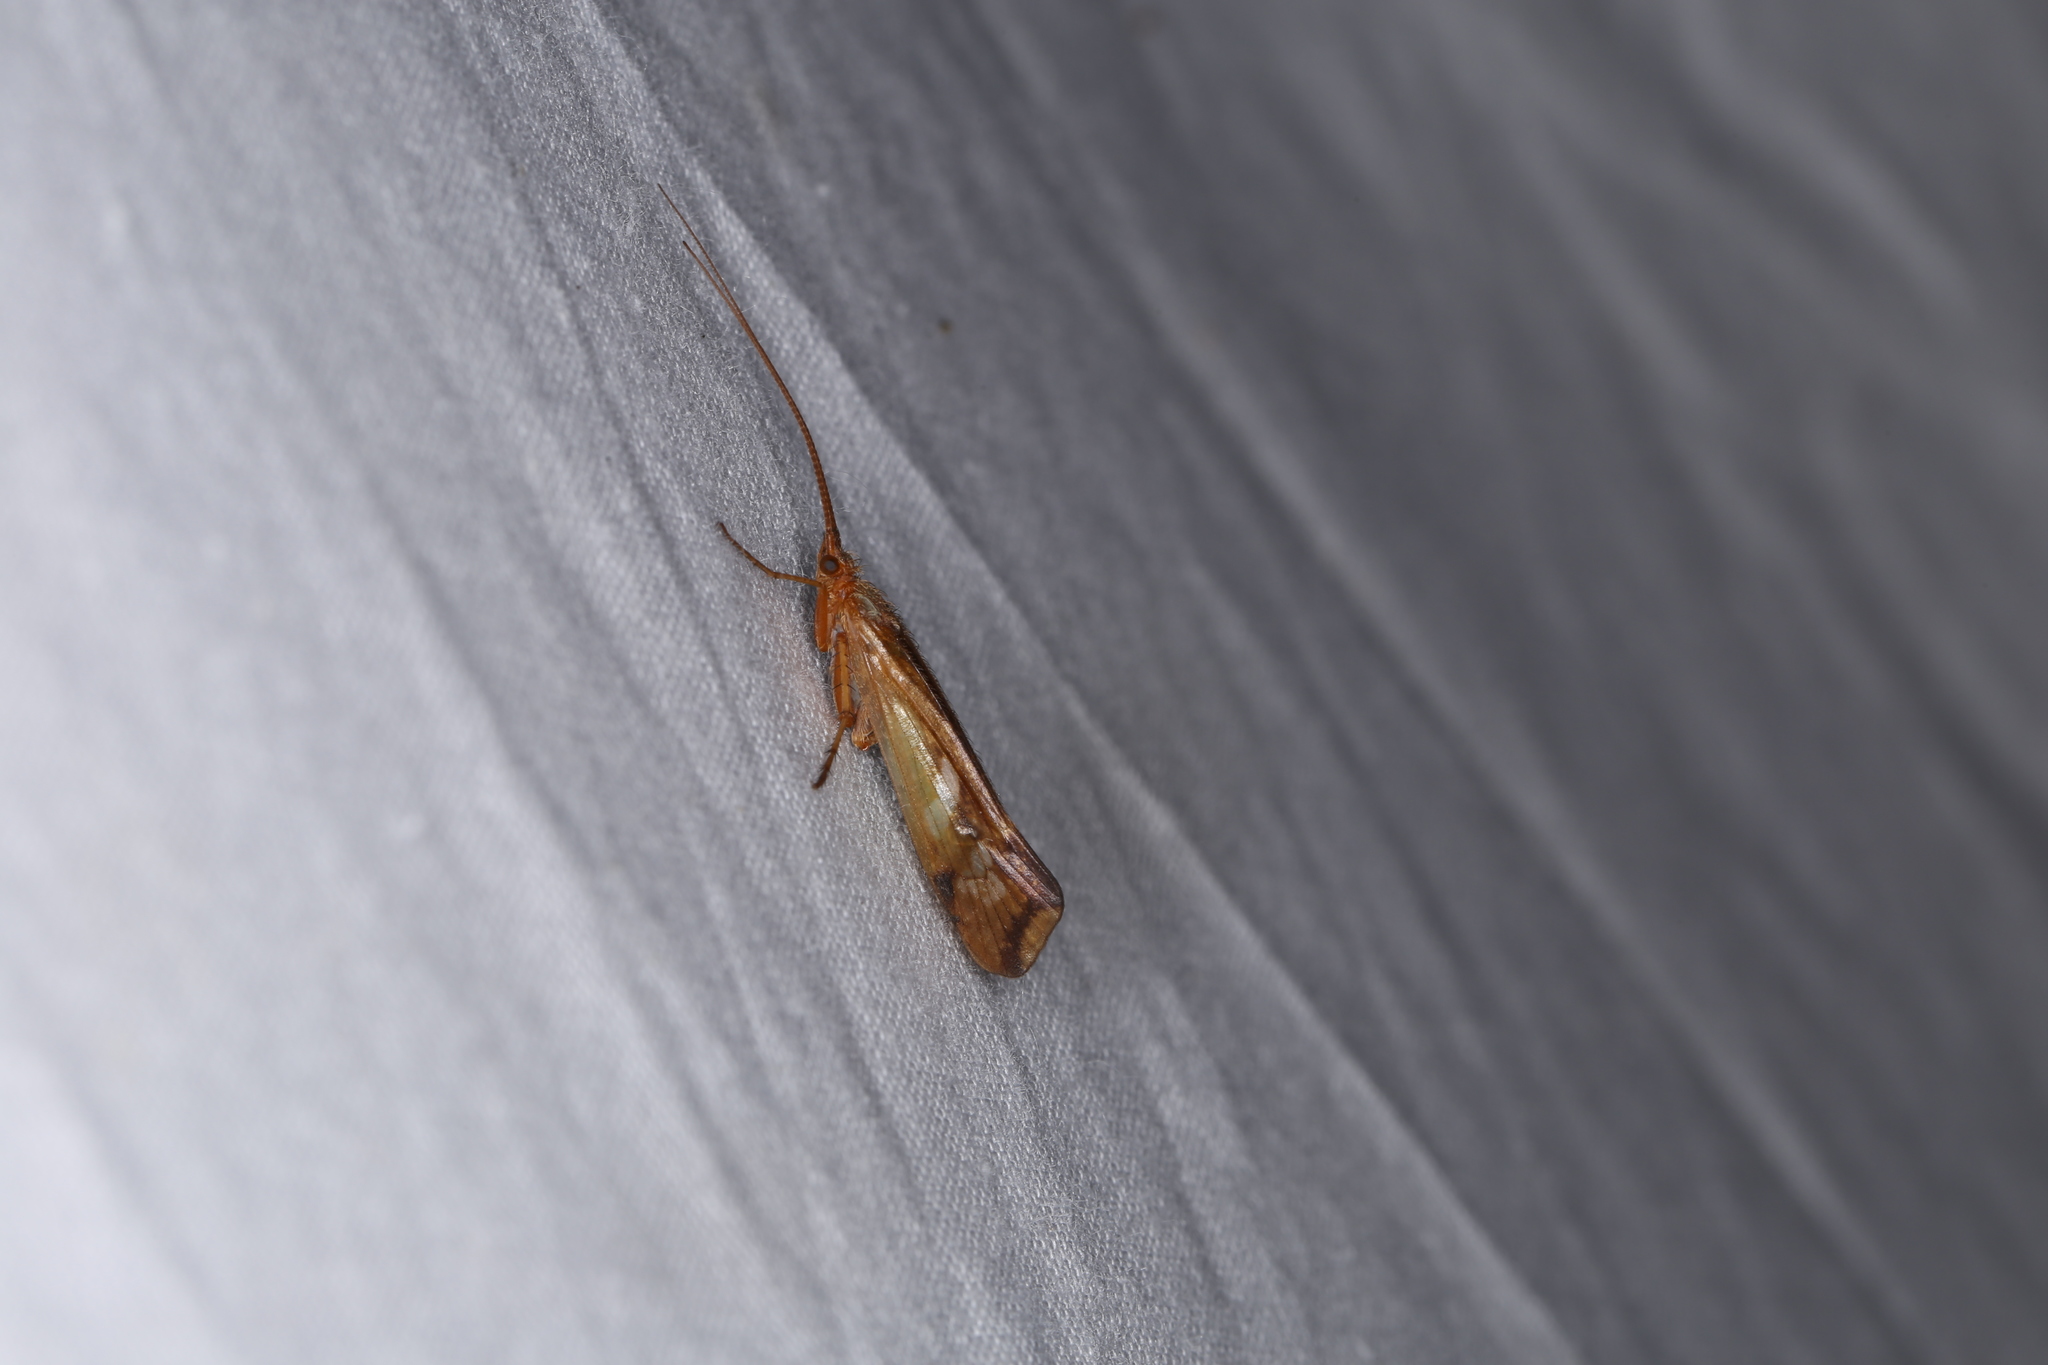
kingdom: Animalia
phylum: Arthropoda
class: Insecta
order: Trichoptera
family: Limnephilidae
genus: Limnephilus
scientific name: Limnephilus lunatus
